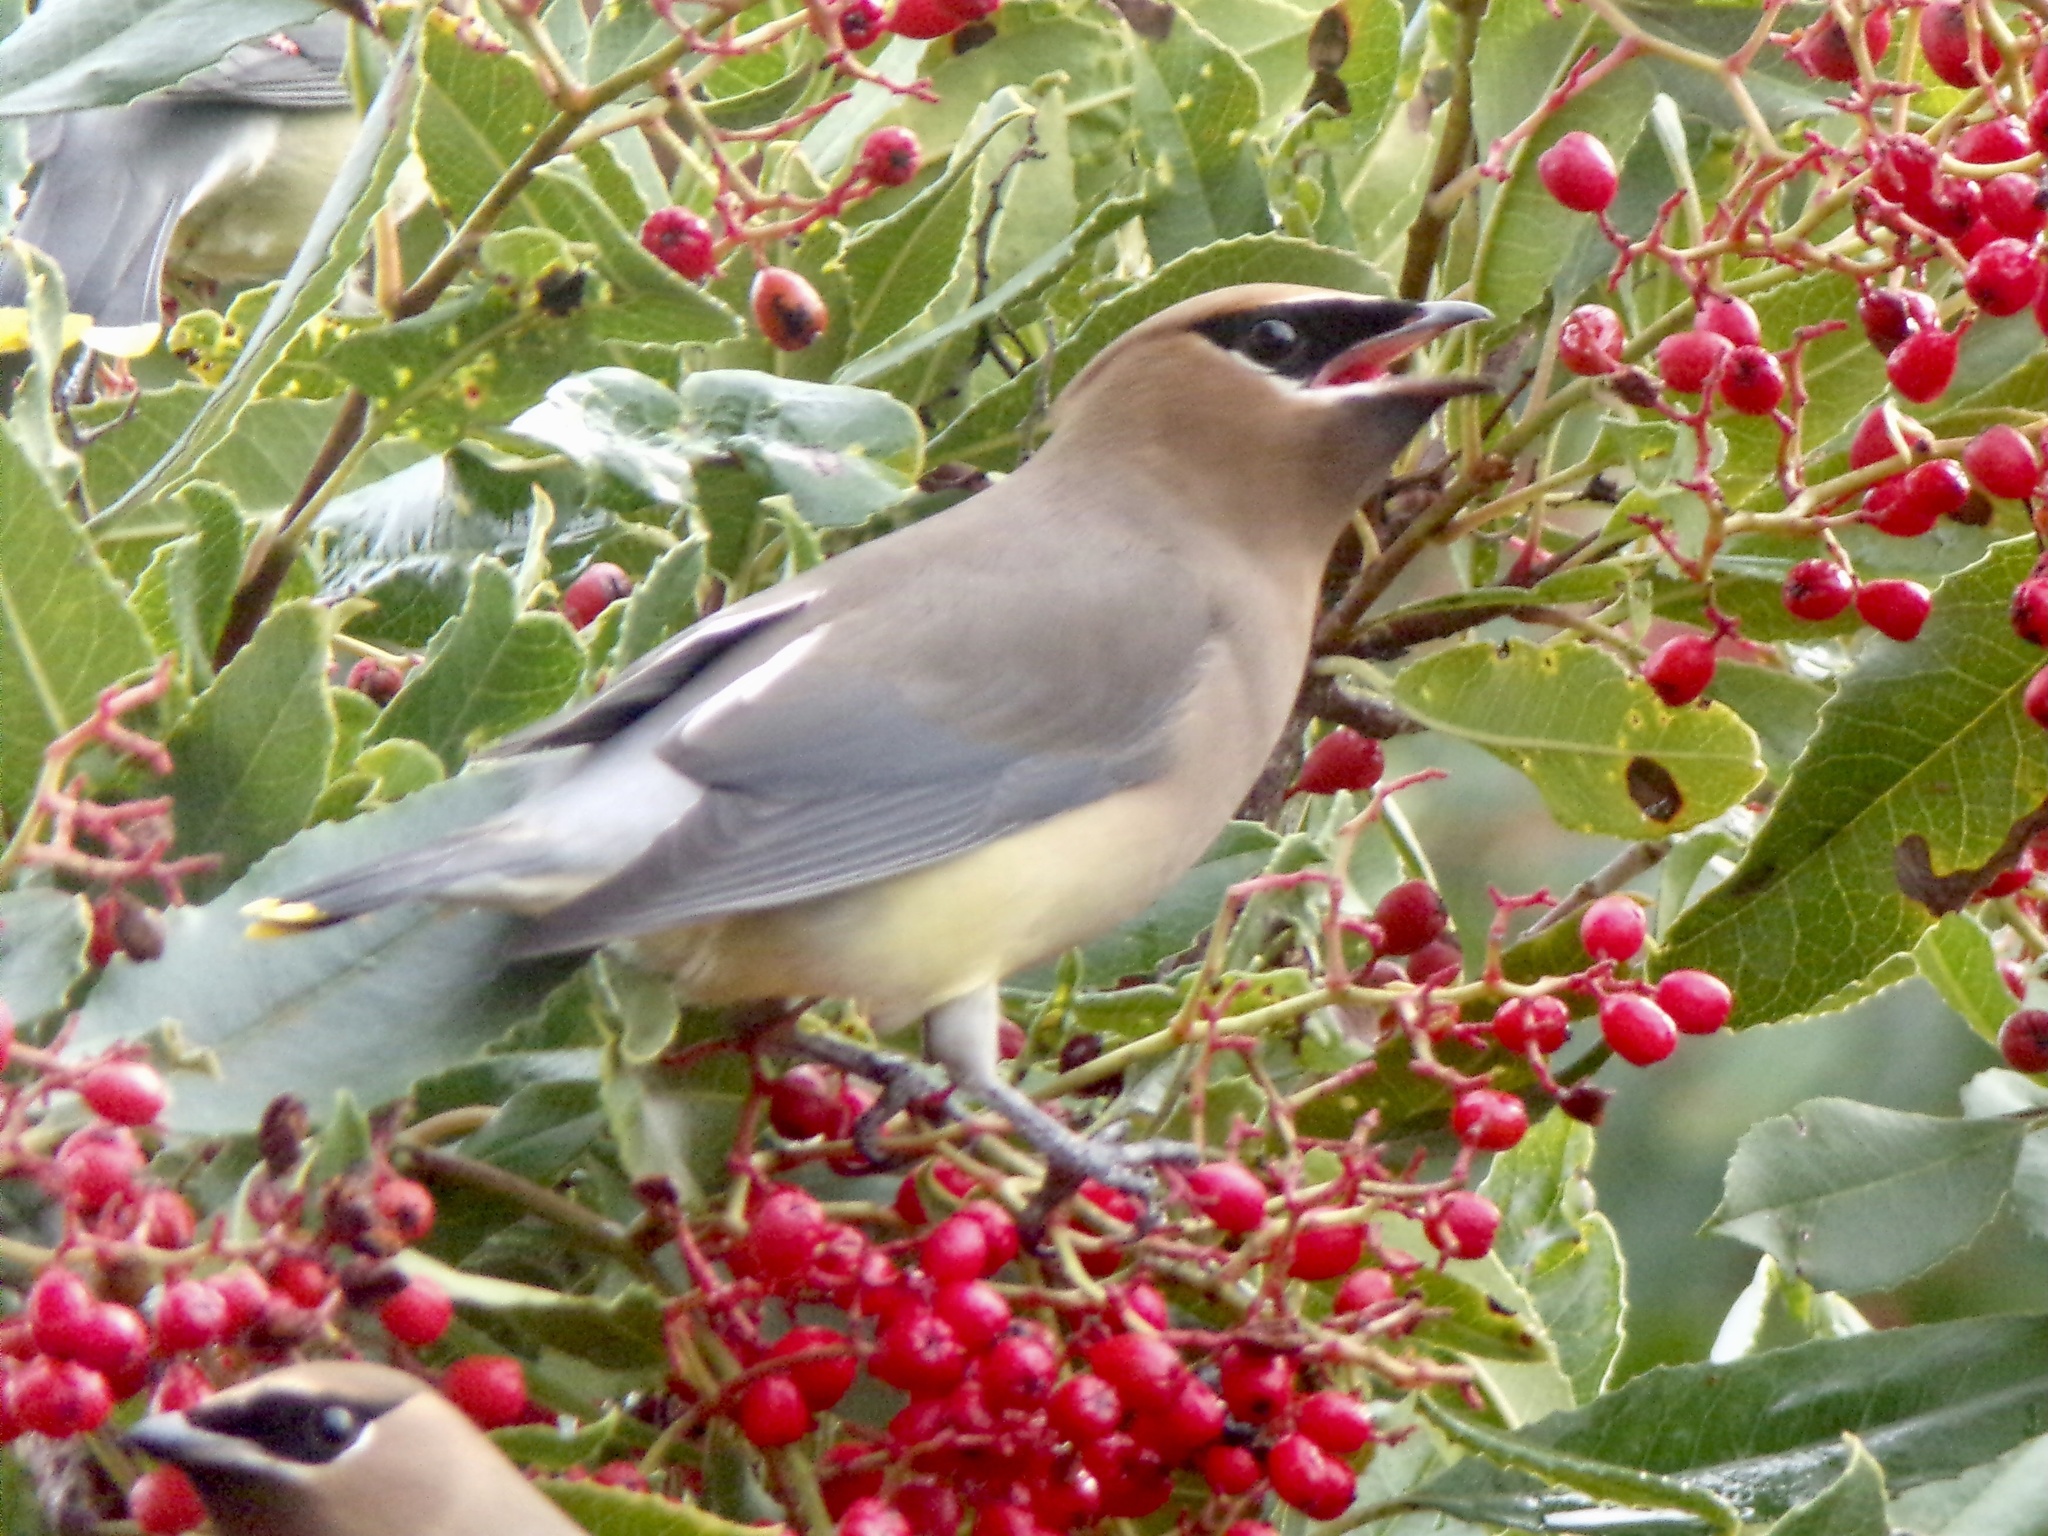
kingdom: Animalia
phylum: Chordata
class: Aves
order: Passeriformes
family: Bombycillidae
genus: Bombycilla
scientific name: Bombycilla cedrorum
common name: Cedar waxwing
